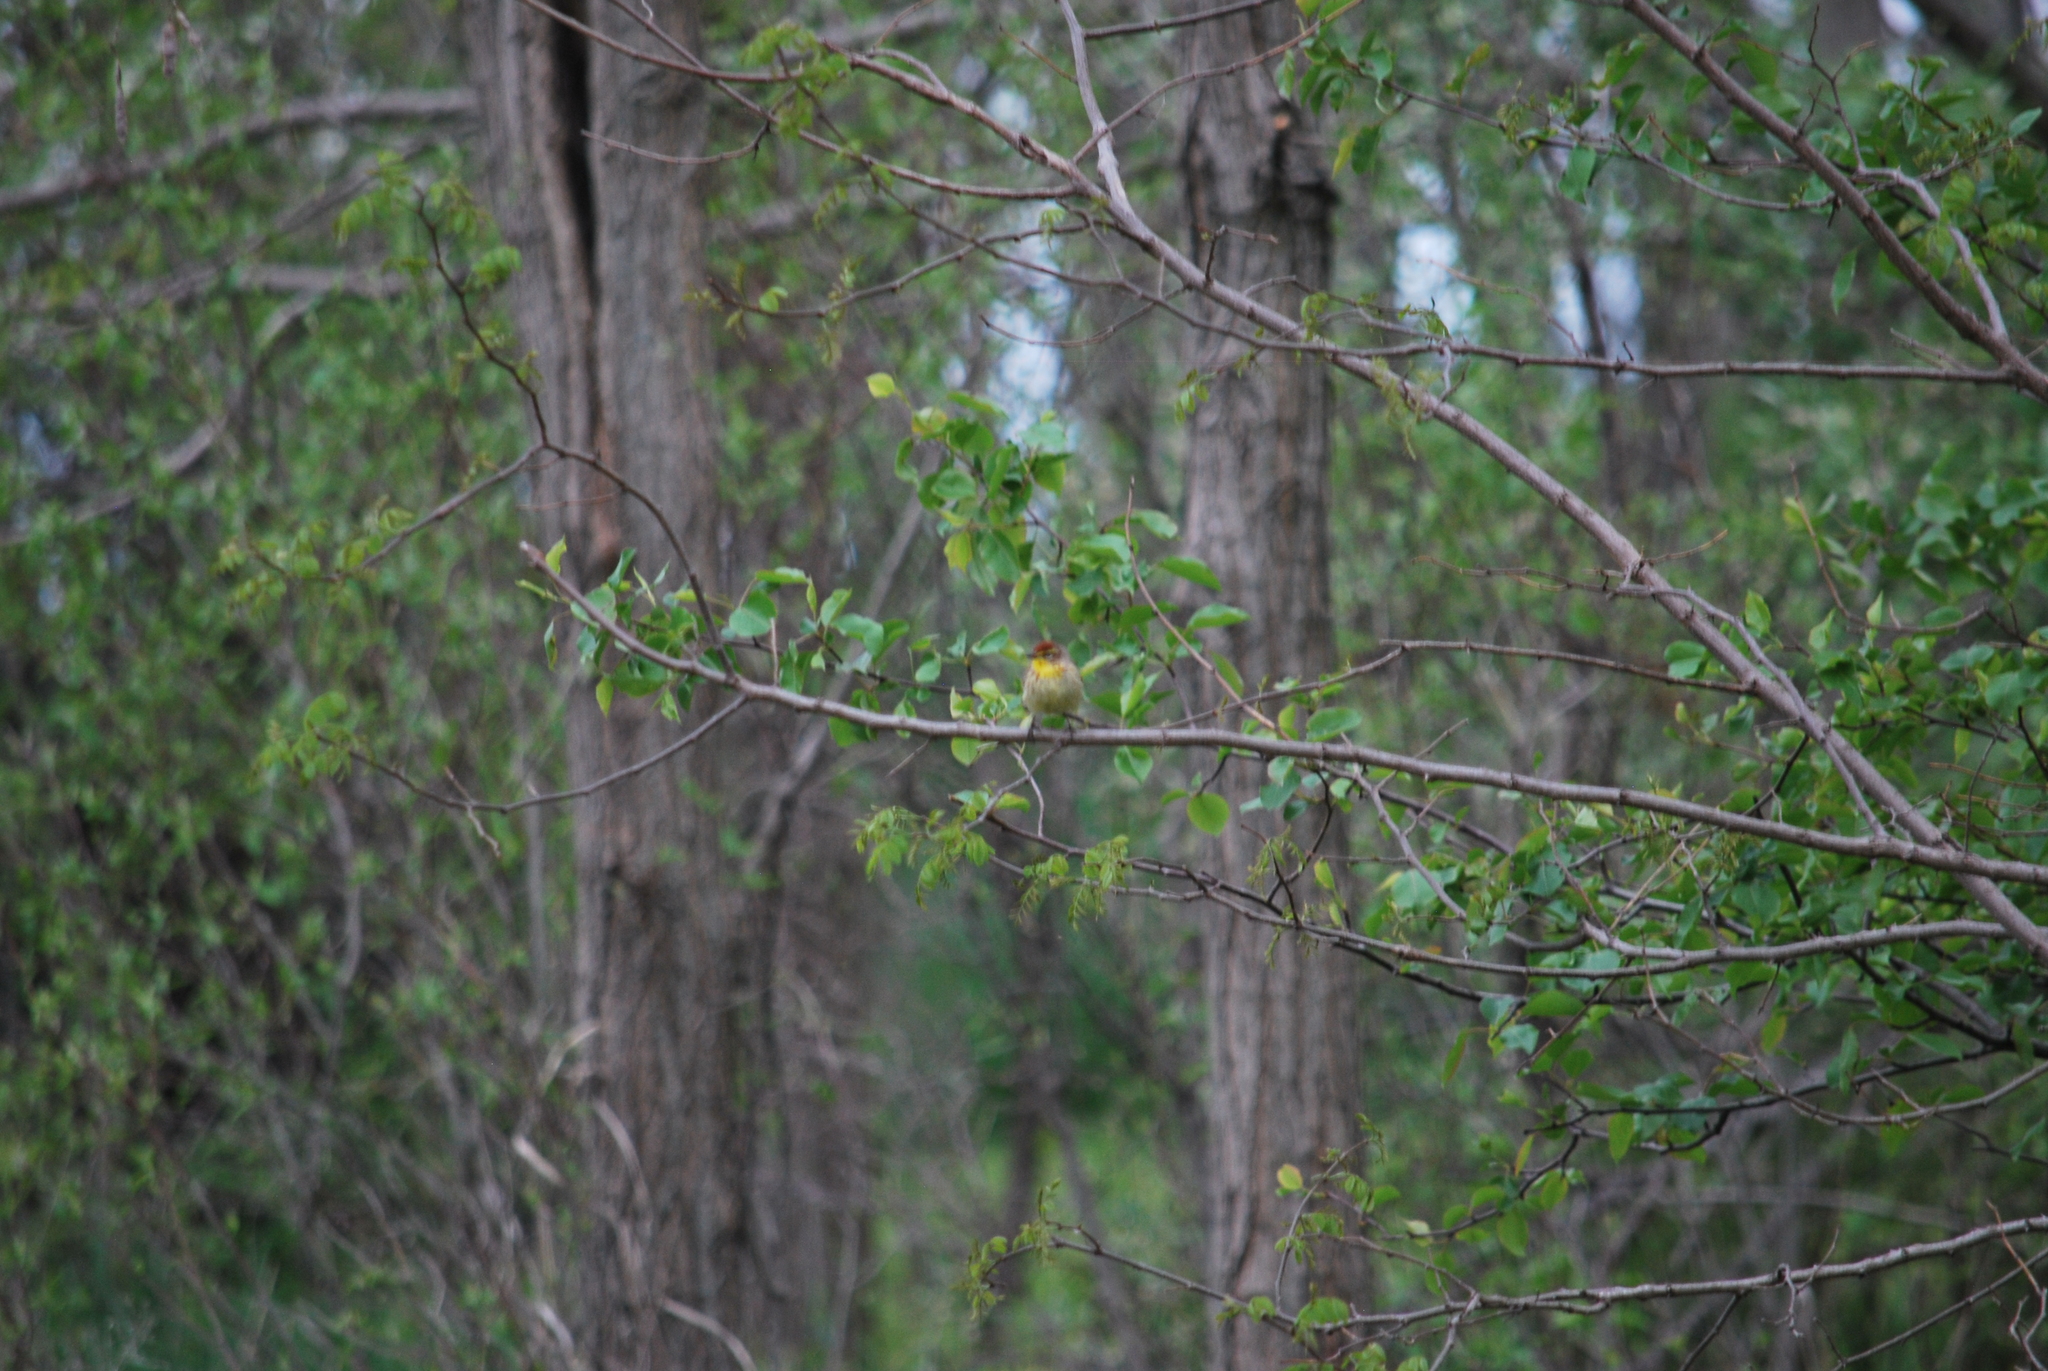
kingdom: Animalia
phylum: Chordata
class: Aves
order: Passeriformes
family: Parulidae
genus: Setophaga
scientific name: Setophaga palmarum
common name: Palm warbler
